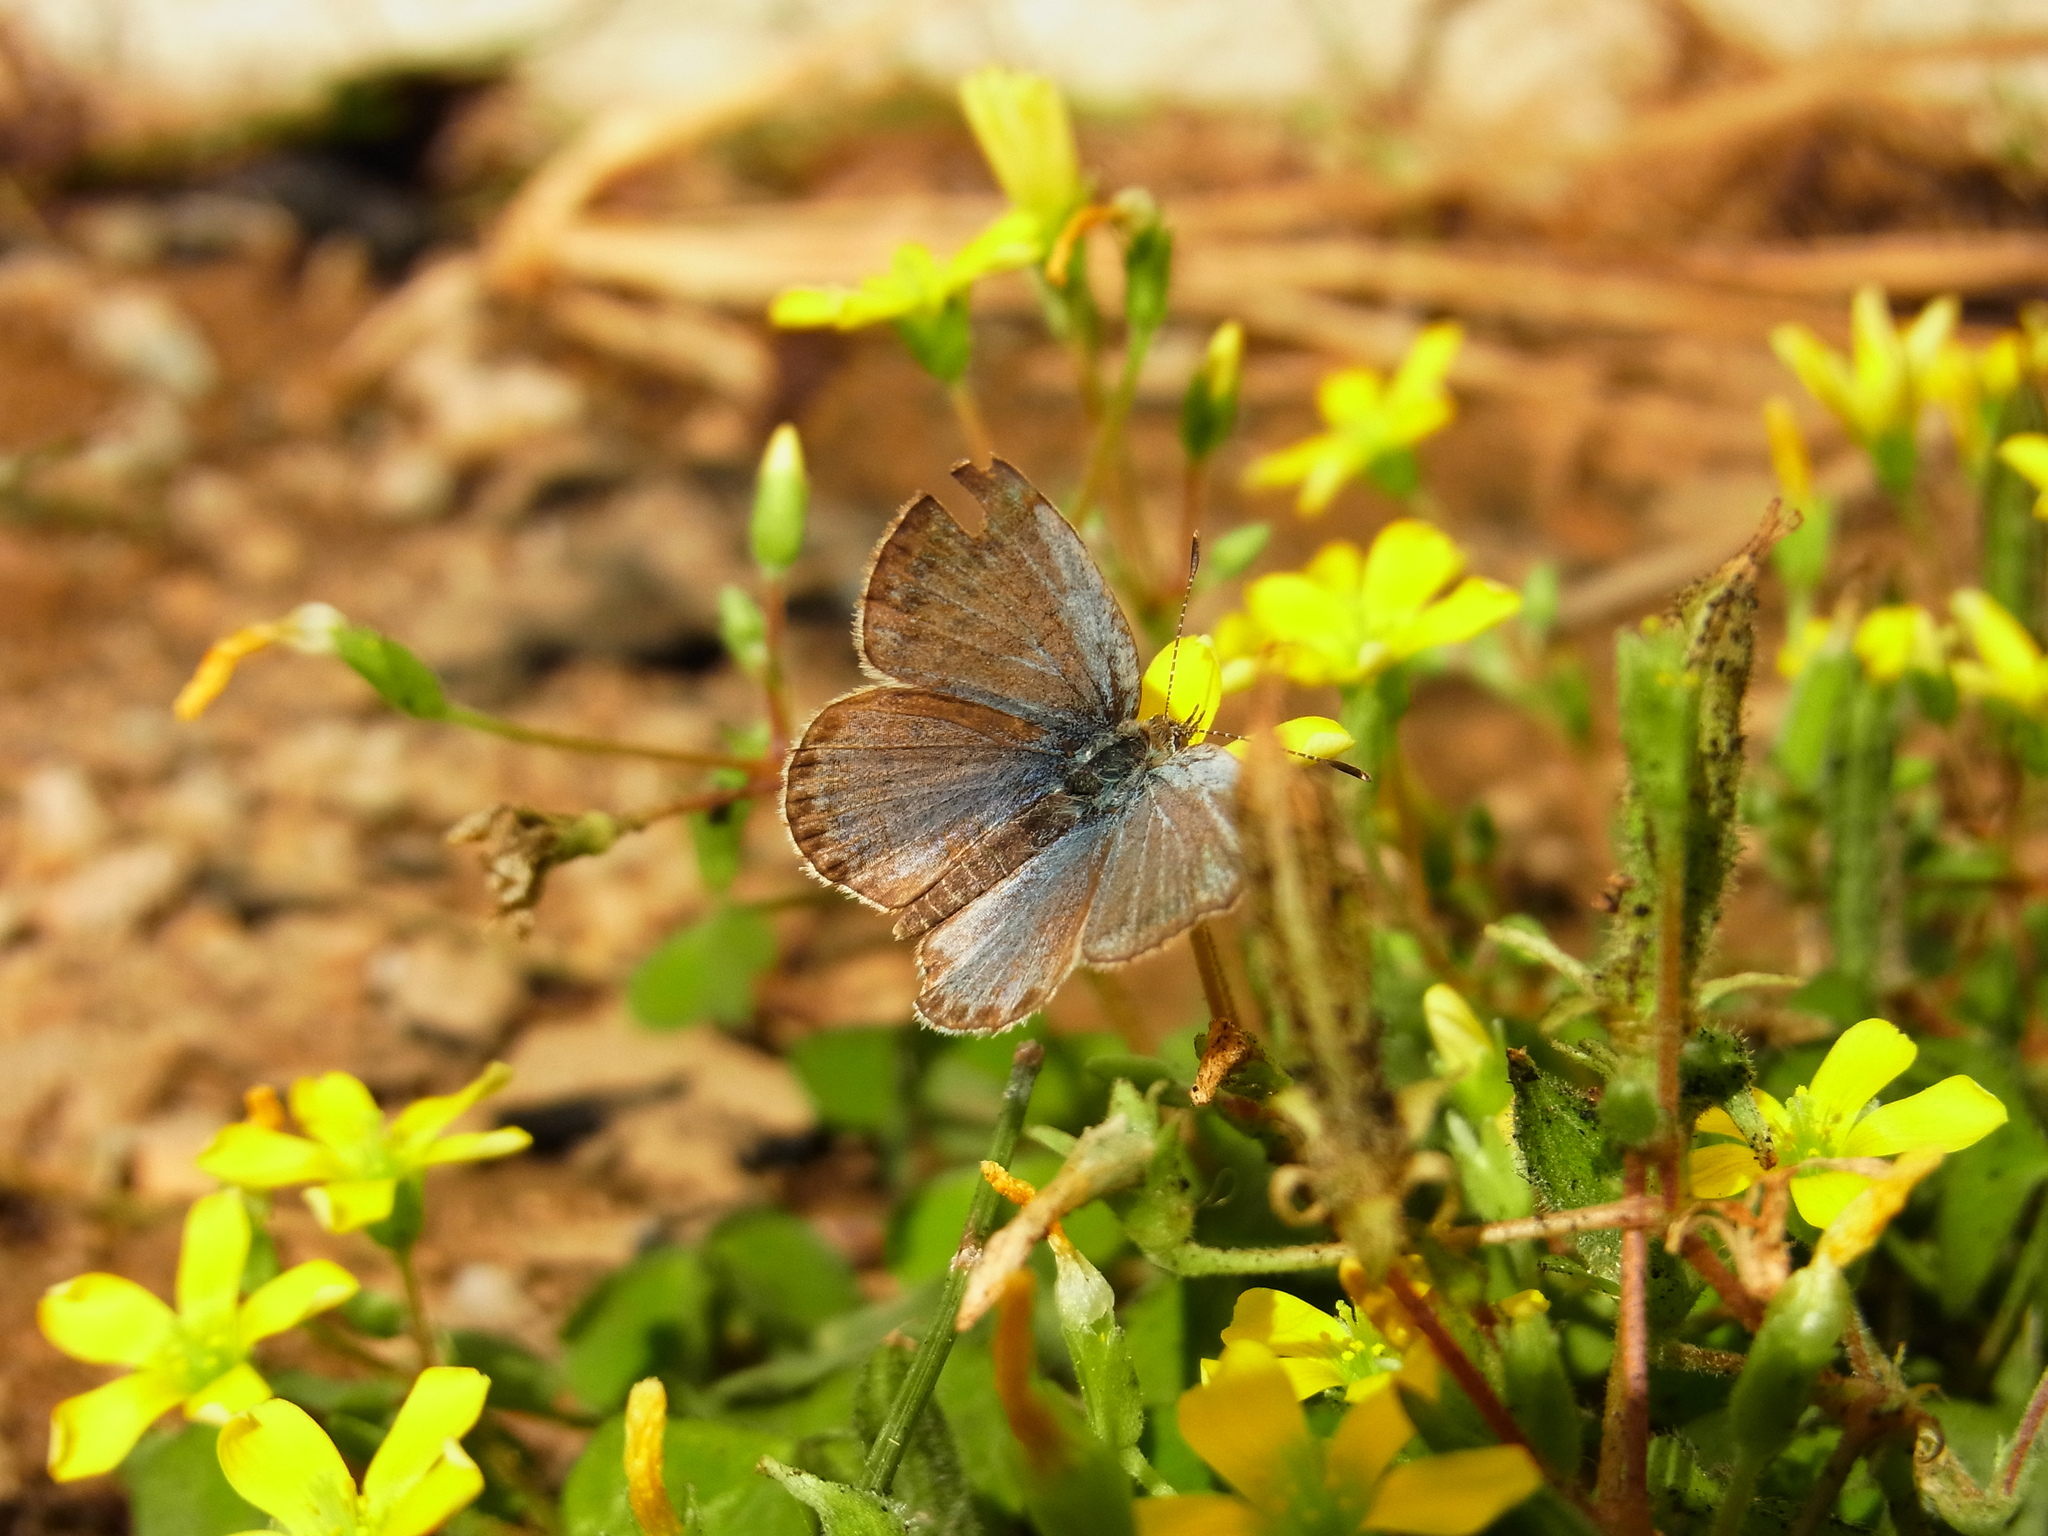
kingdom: Animalia
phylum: Arthropoda
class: Insecta
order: Lepidoptera
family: Lycaenidae
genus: Pseudozizeeria
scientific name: Pseudozizeeria maha
